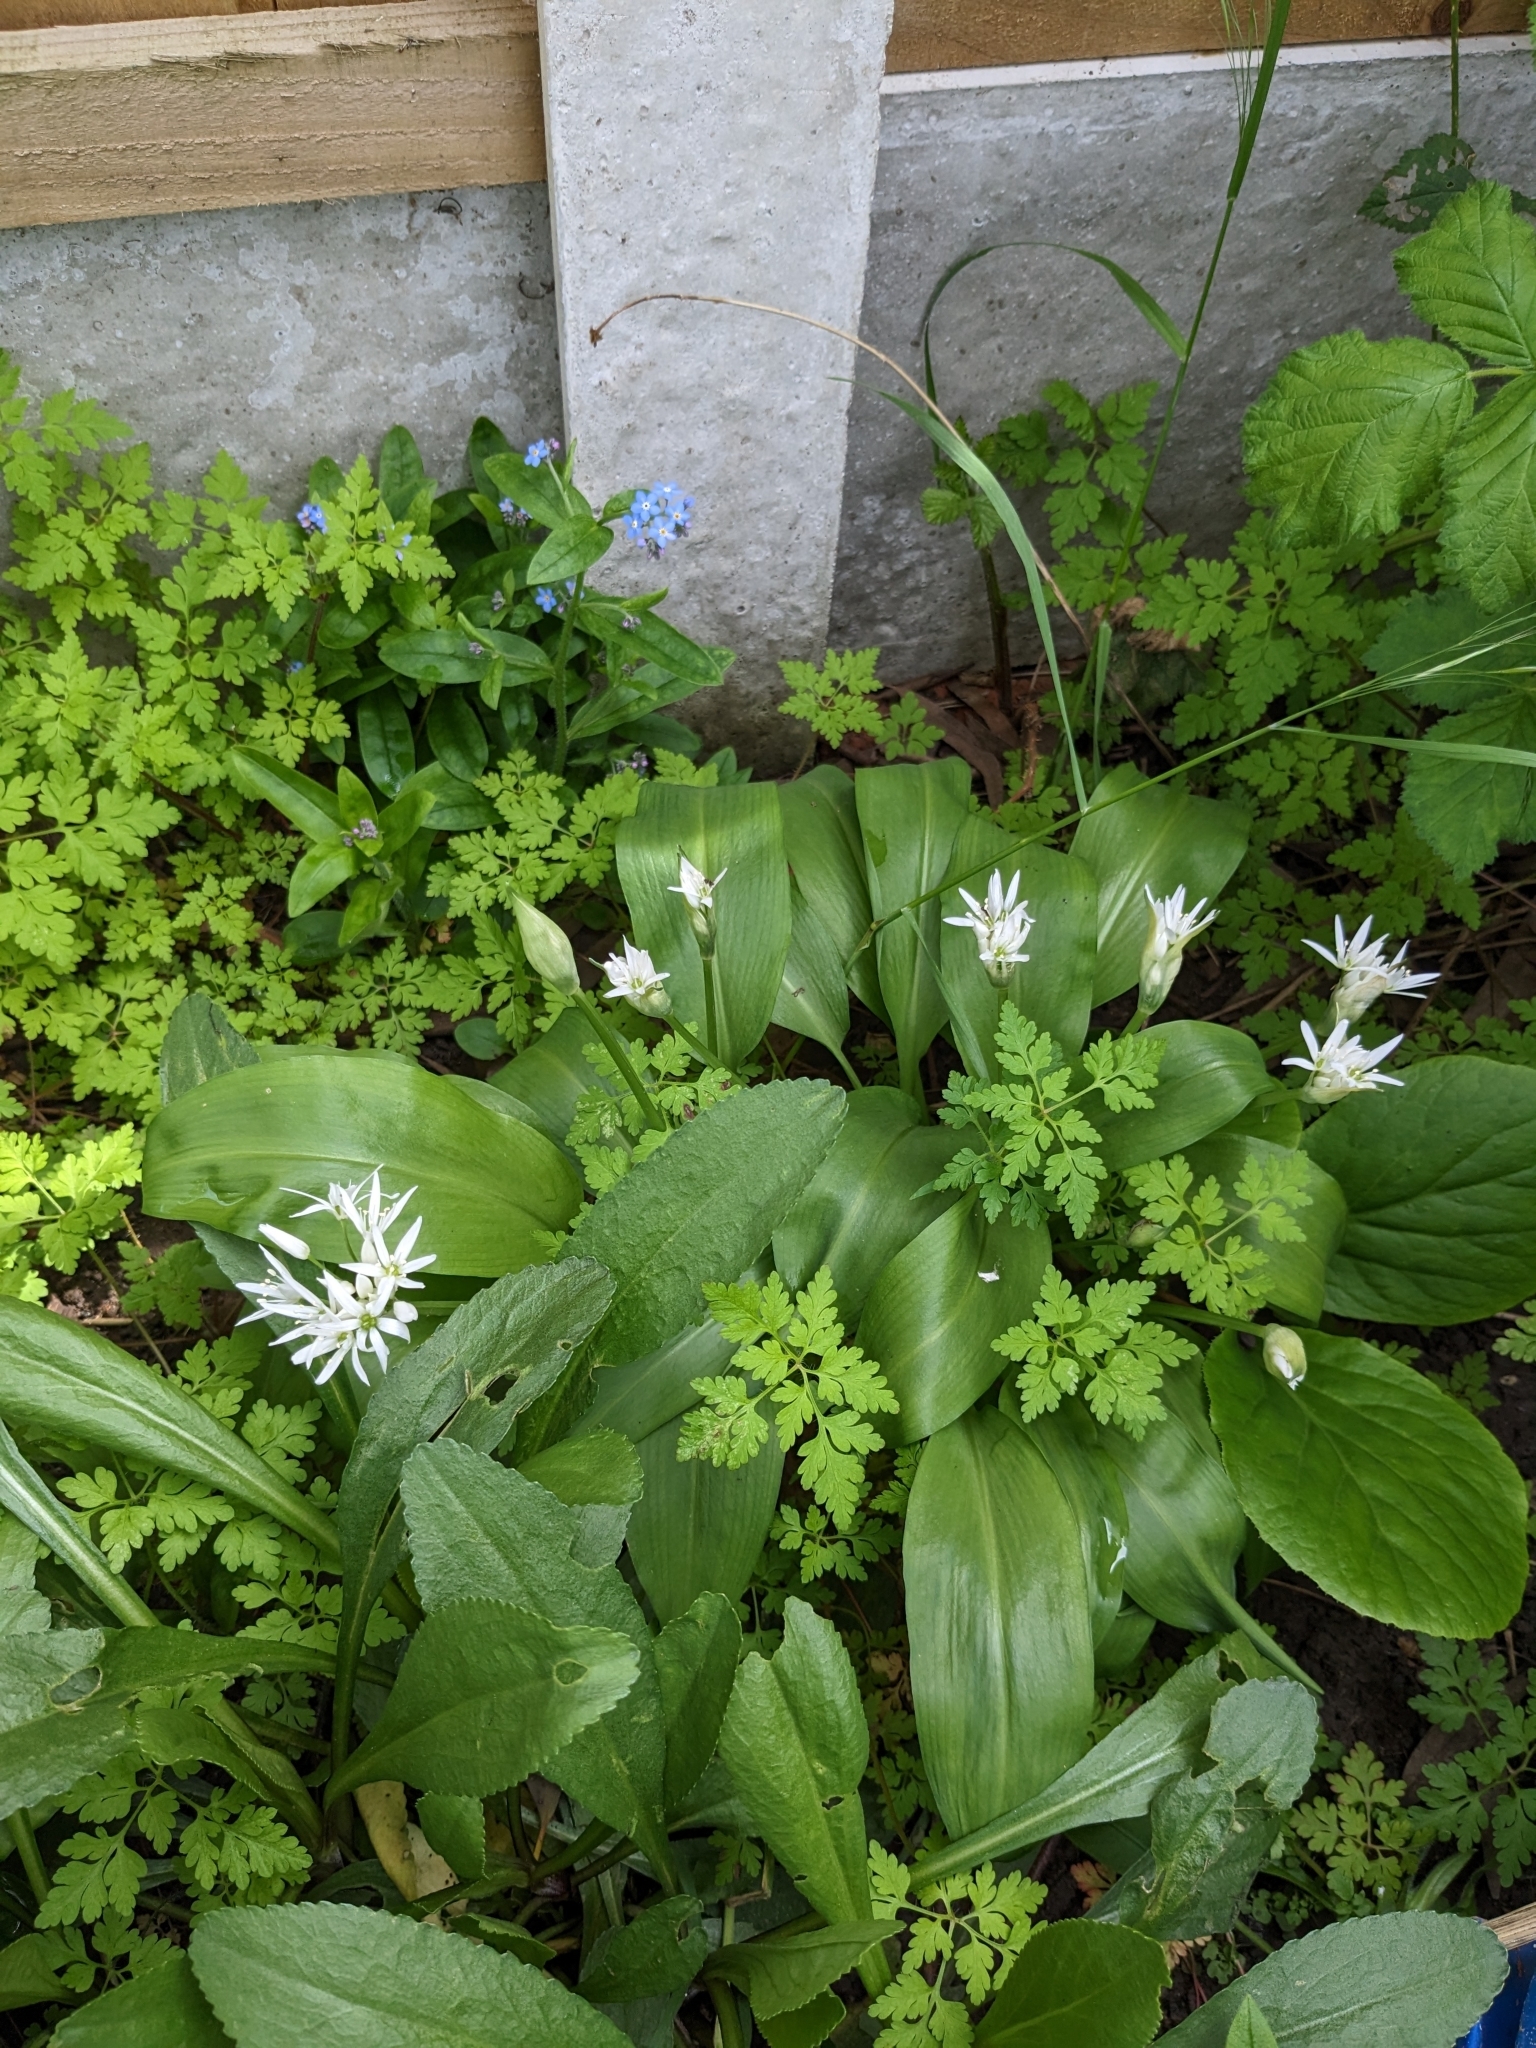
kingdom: Plantae
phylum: Tracheophyta
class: Liliopsida
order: Asparagales
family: Amaryllidaceae
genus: Allium
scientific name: Allium ursinum
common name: Ramsons
